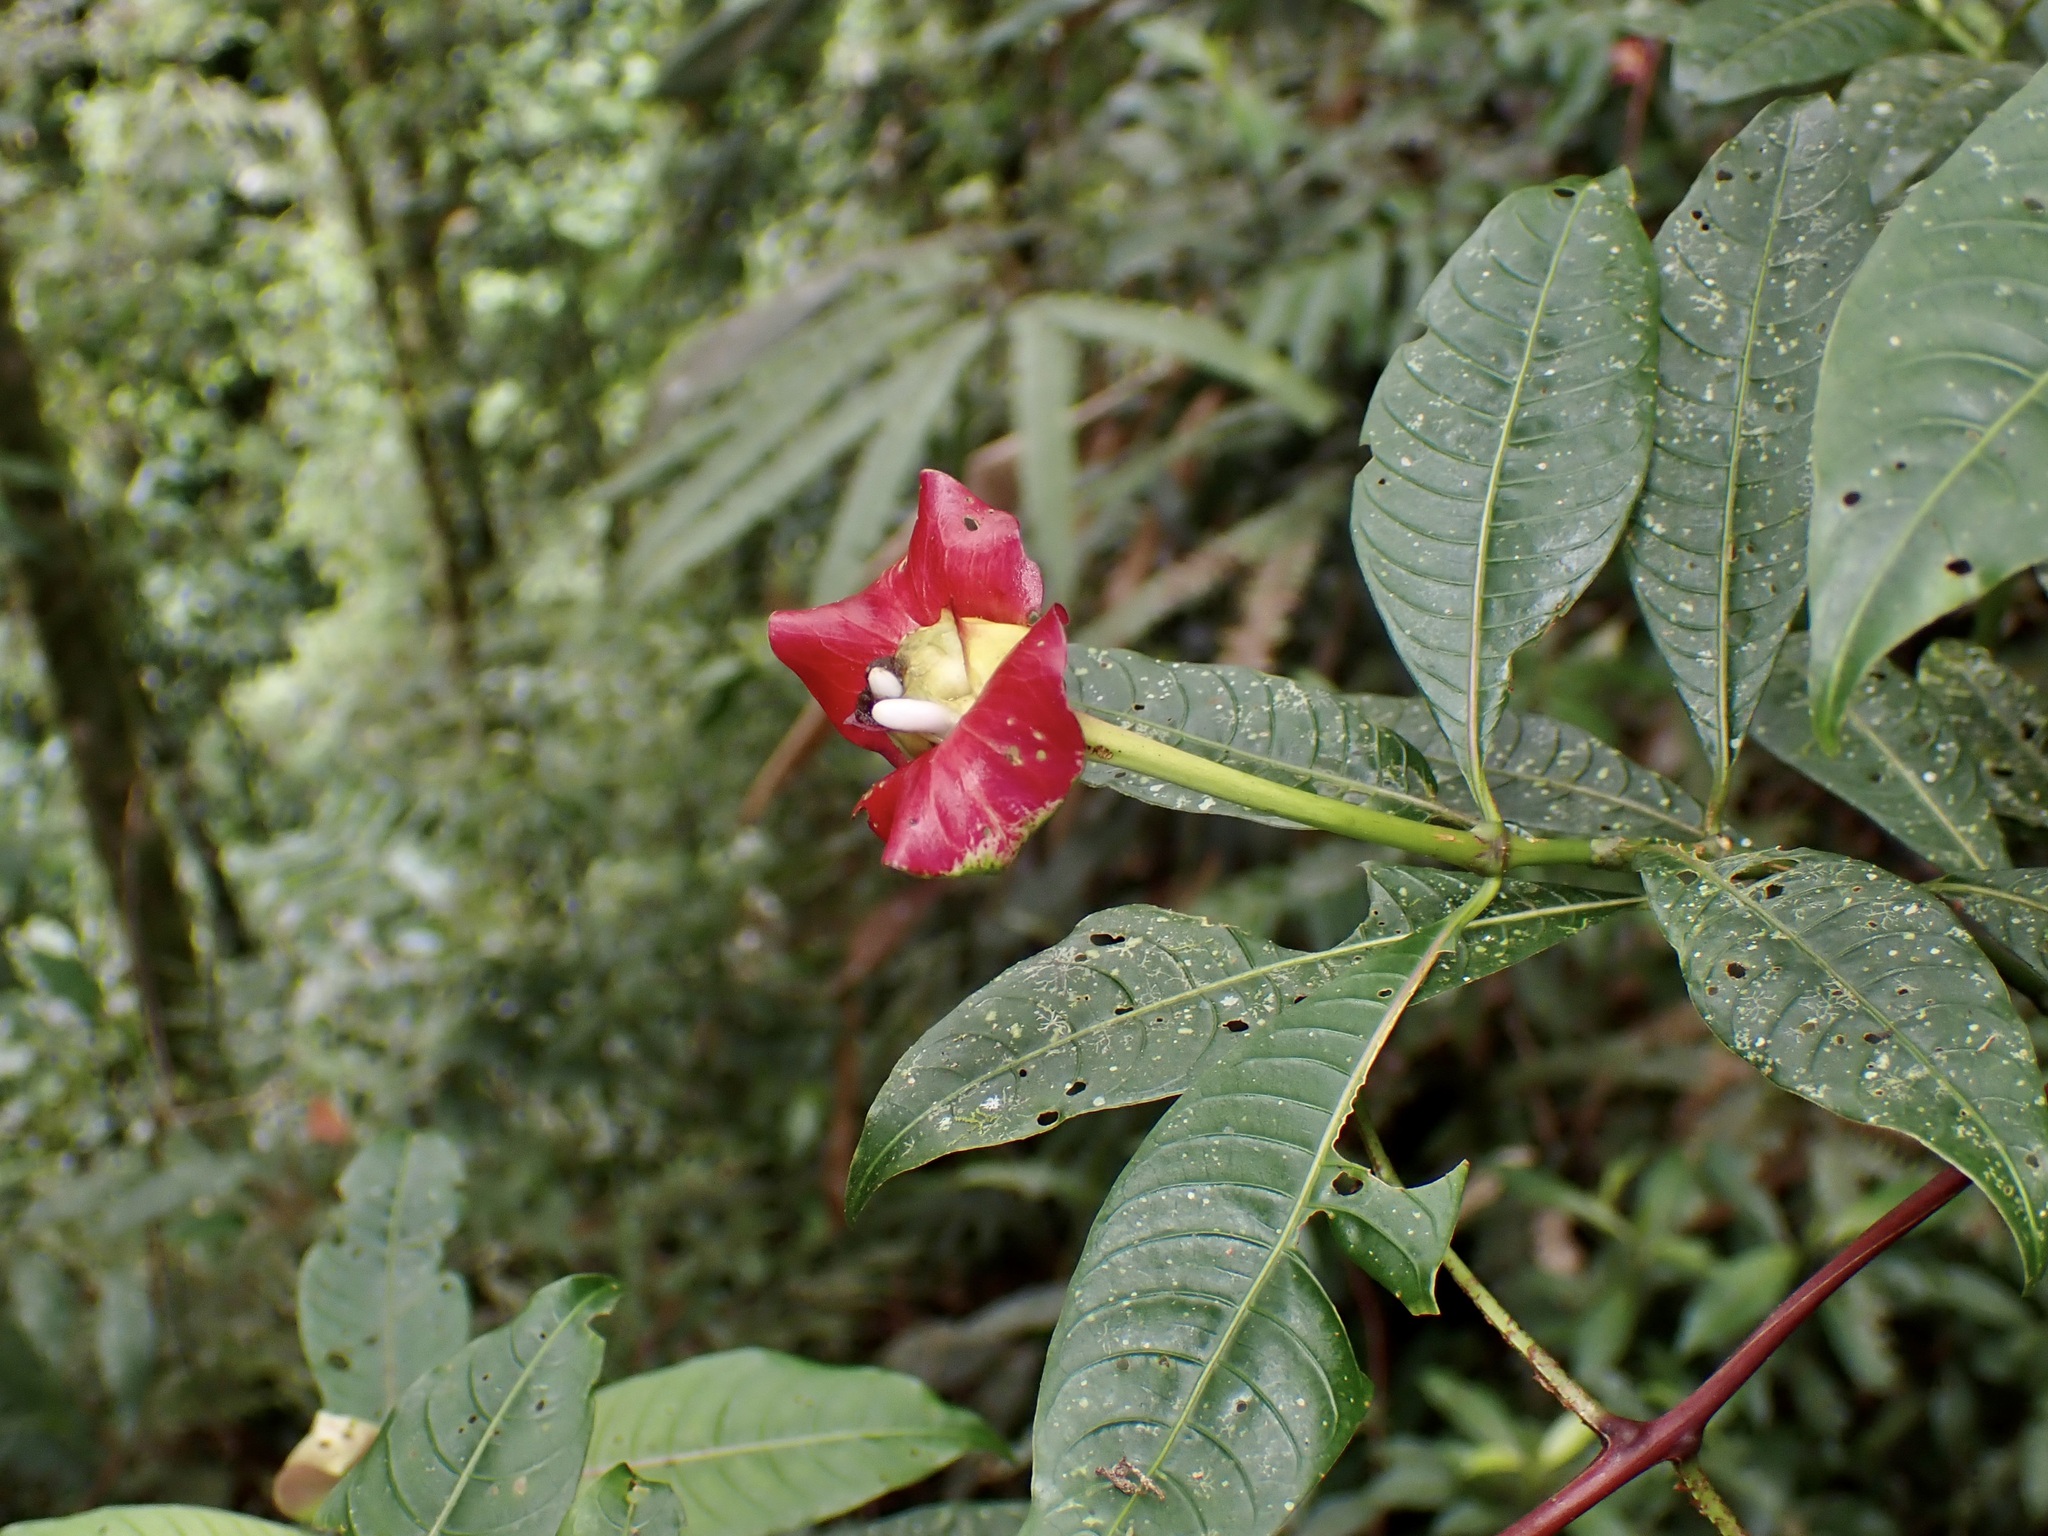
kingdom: Plantae
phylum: Tracheophyta
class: Magnoliopsida
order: Gentianales
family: Rubiaceae
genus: Palicourea
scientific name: Palicourea elata
